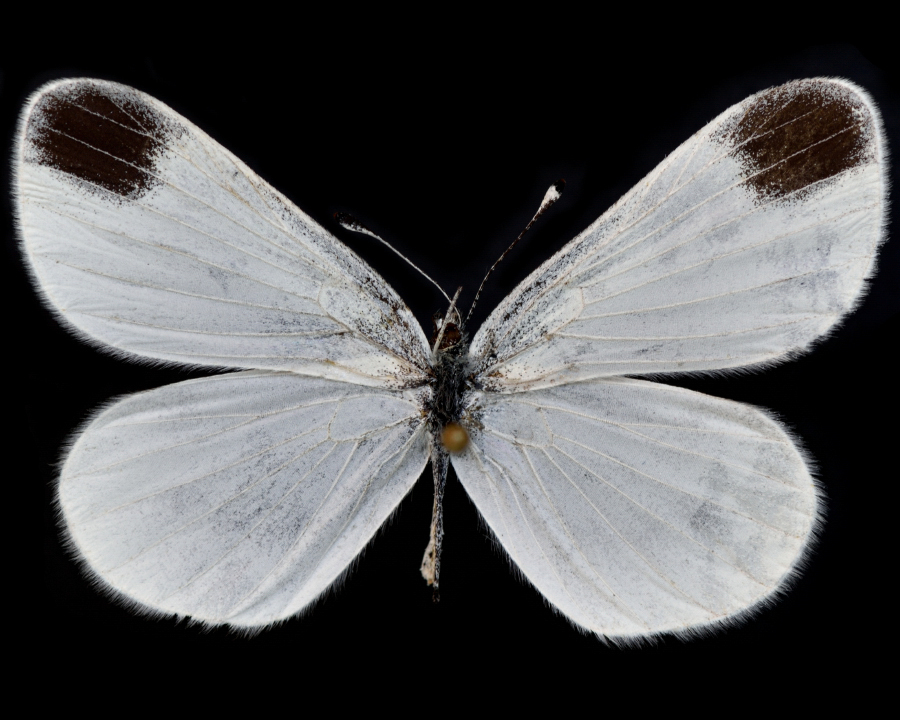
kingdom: Animalia
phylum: Arthropoda
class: Insecta
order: Lepidoptera
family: Pieridae
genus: Leptidea
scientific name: Leptidea juvernica
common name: Cryptic wood white
